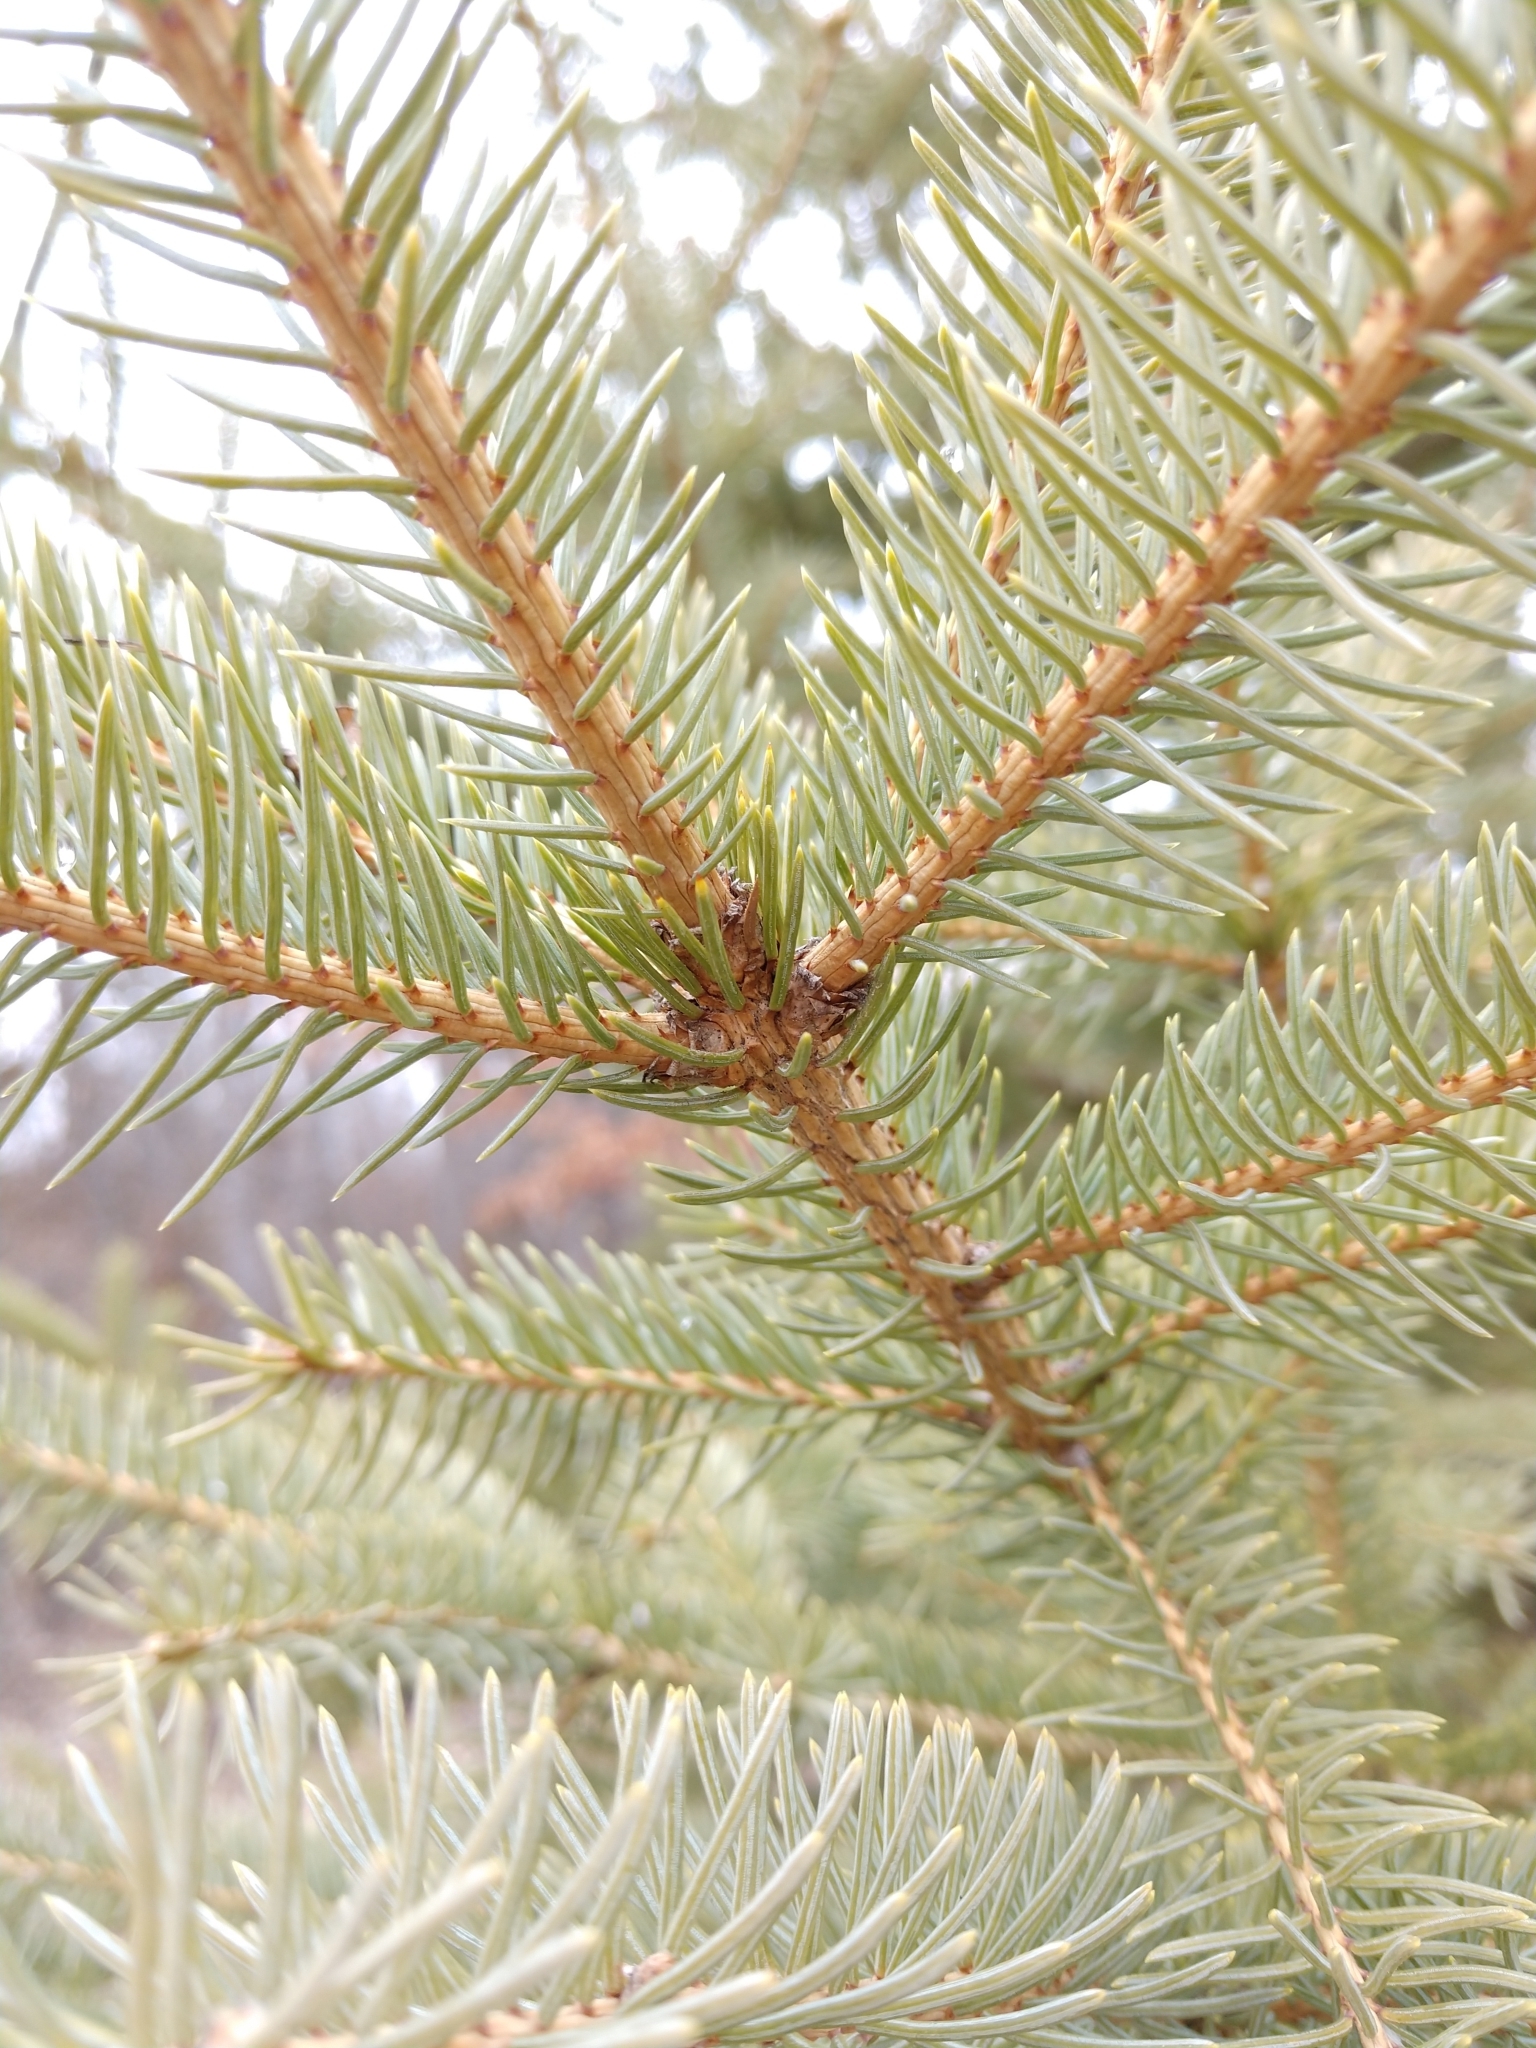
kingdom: Plantae
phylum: Tracheophyta
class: Pinopsida
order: Pinales
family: Pinaceae
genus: Picea
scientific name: Picea glauca
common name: White spruce
